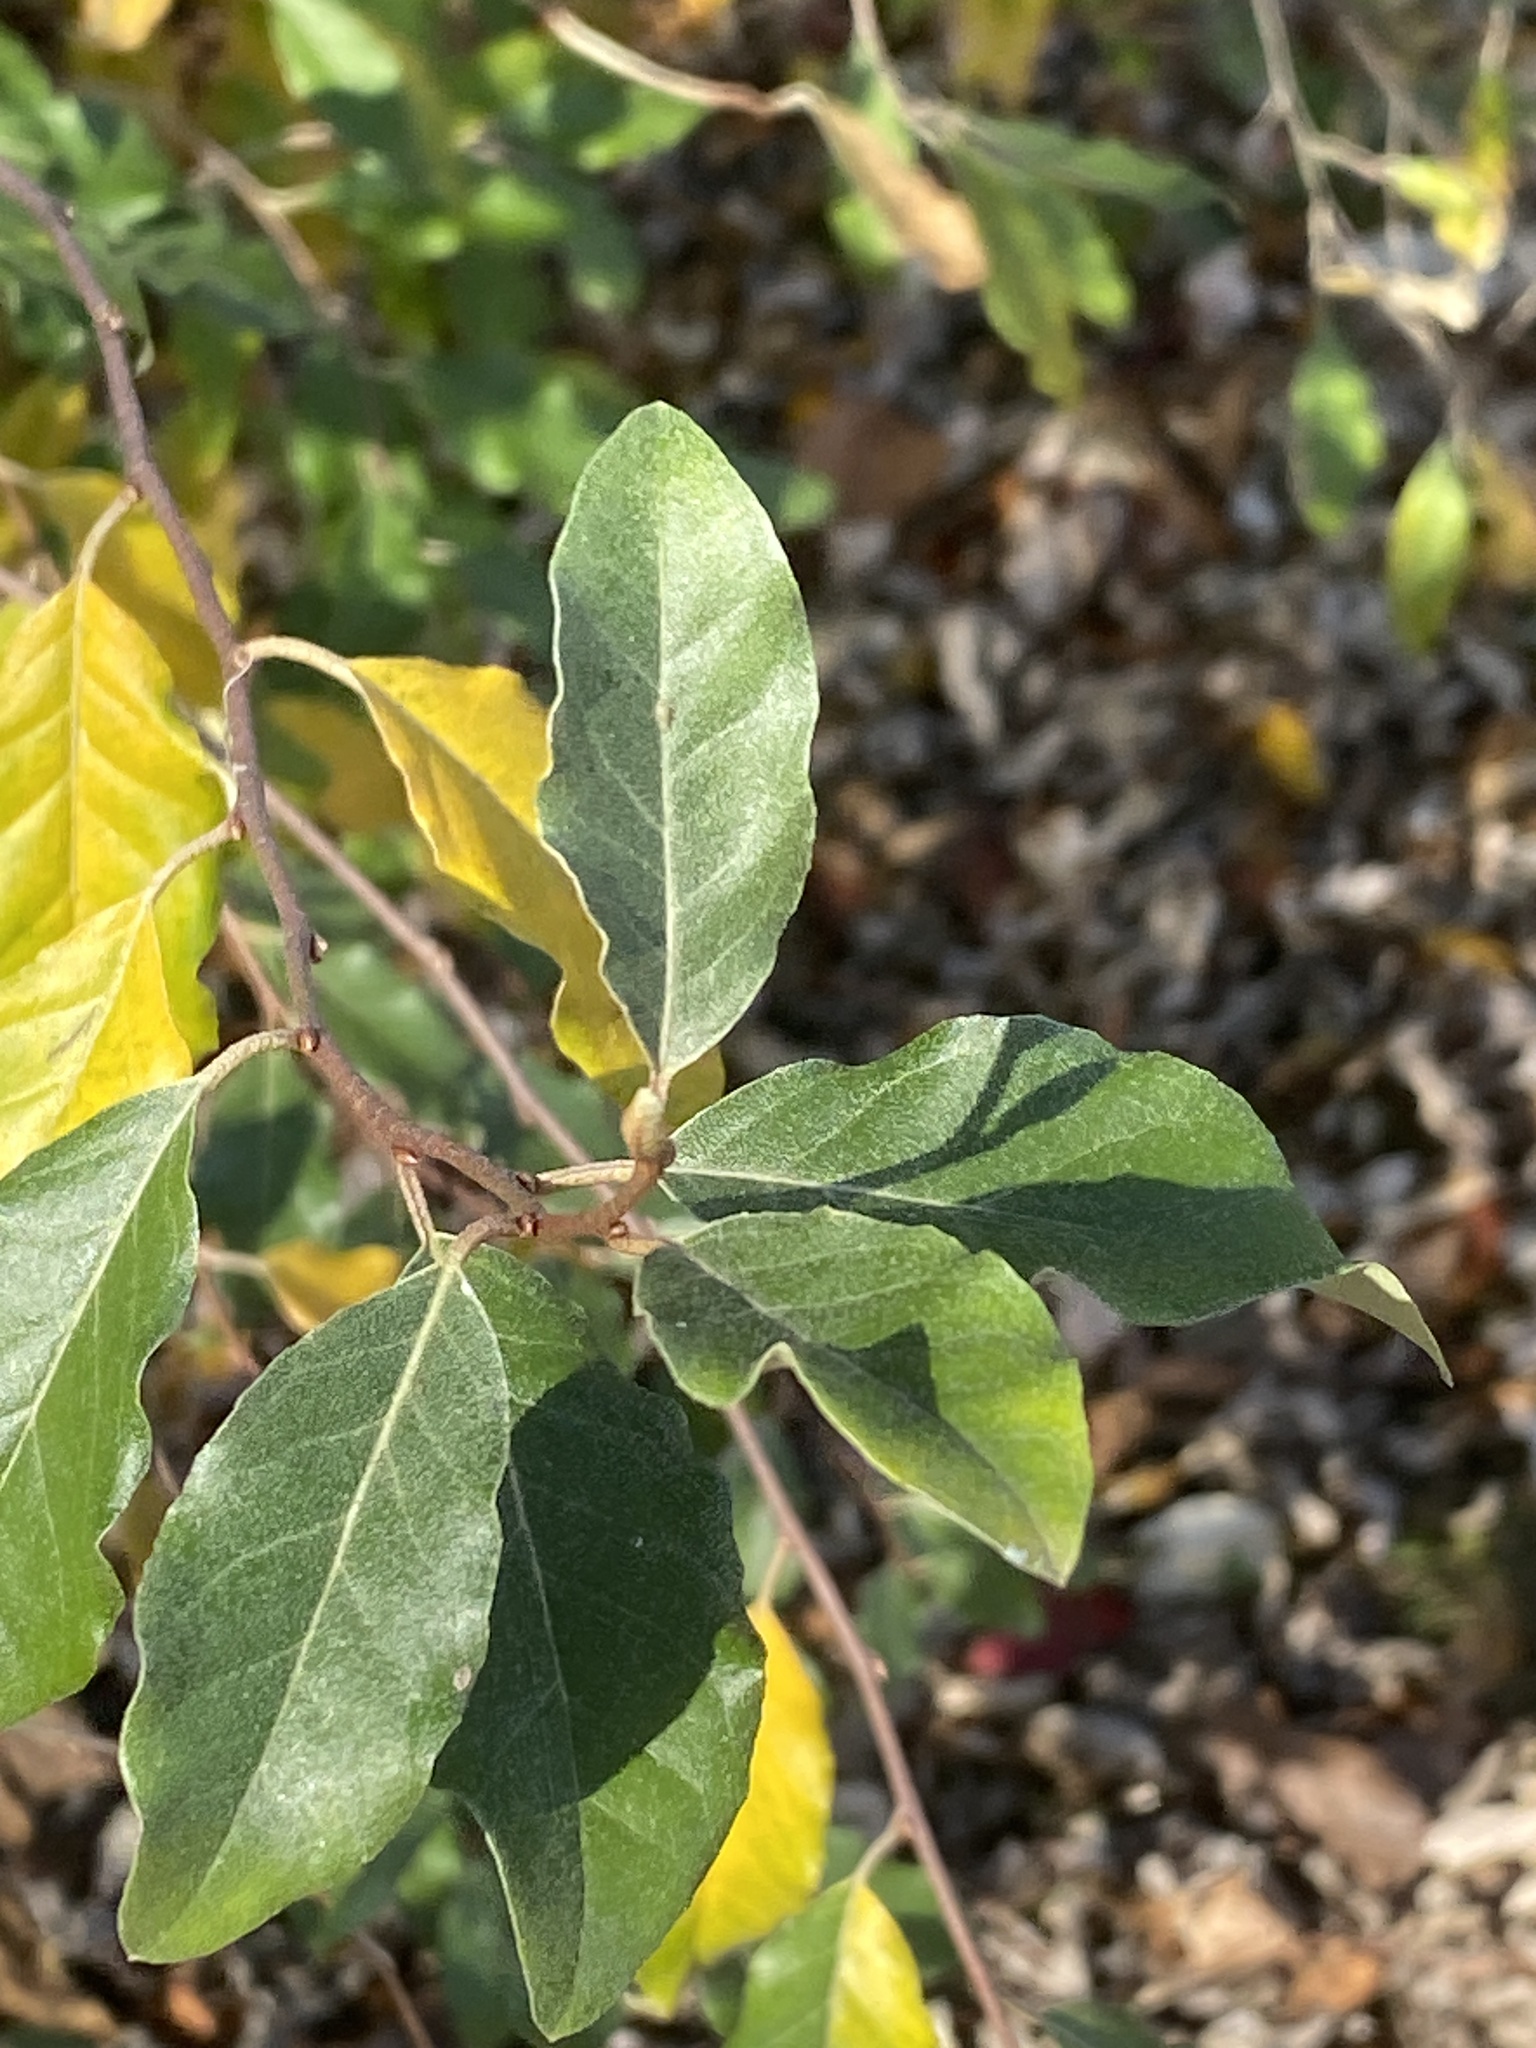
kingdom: Plantae
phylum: Tracheophyta
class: Magnoliopsida
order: Rosales
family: Elaeagnaceae
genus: Elaeagnus
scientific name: Elaeagnus umbellata
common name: Autumn olive
